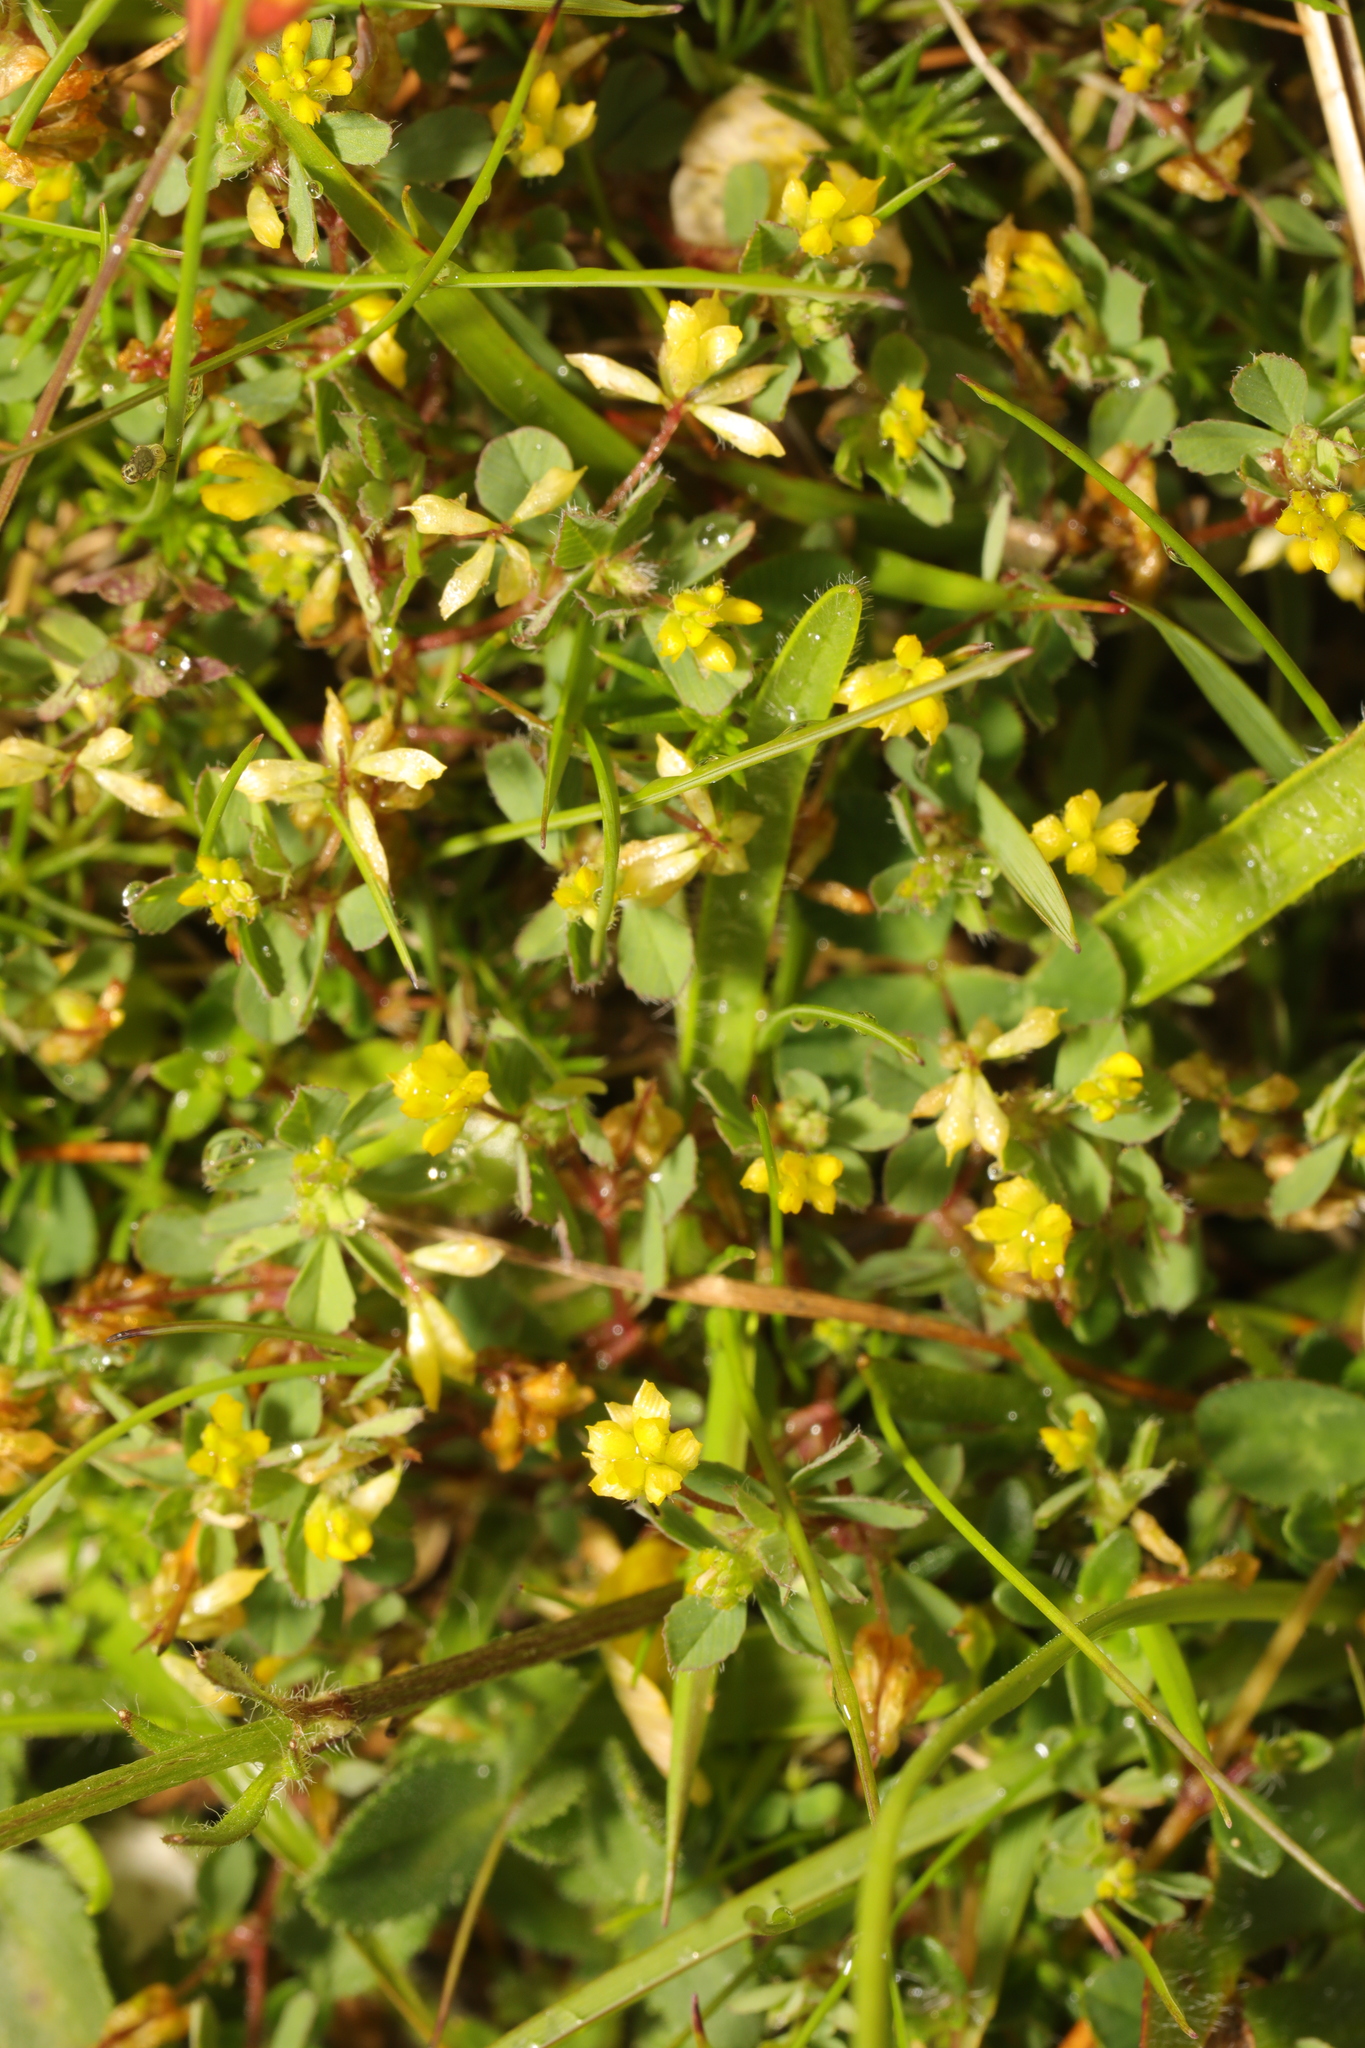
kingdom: Plantae
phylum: Tracheophyta
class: Magnoliopsida
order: Fabales
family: Fabaceae
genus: Trifolium
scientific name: Trifolium dubium
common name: Suckling clover
